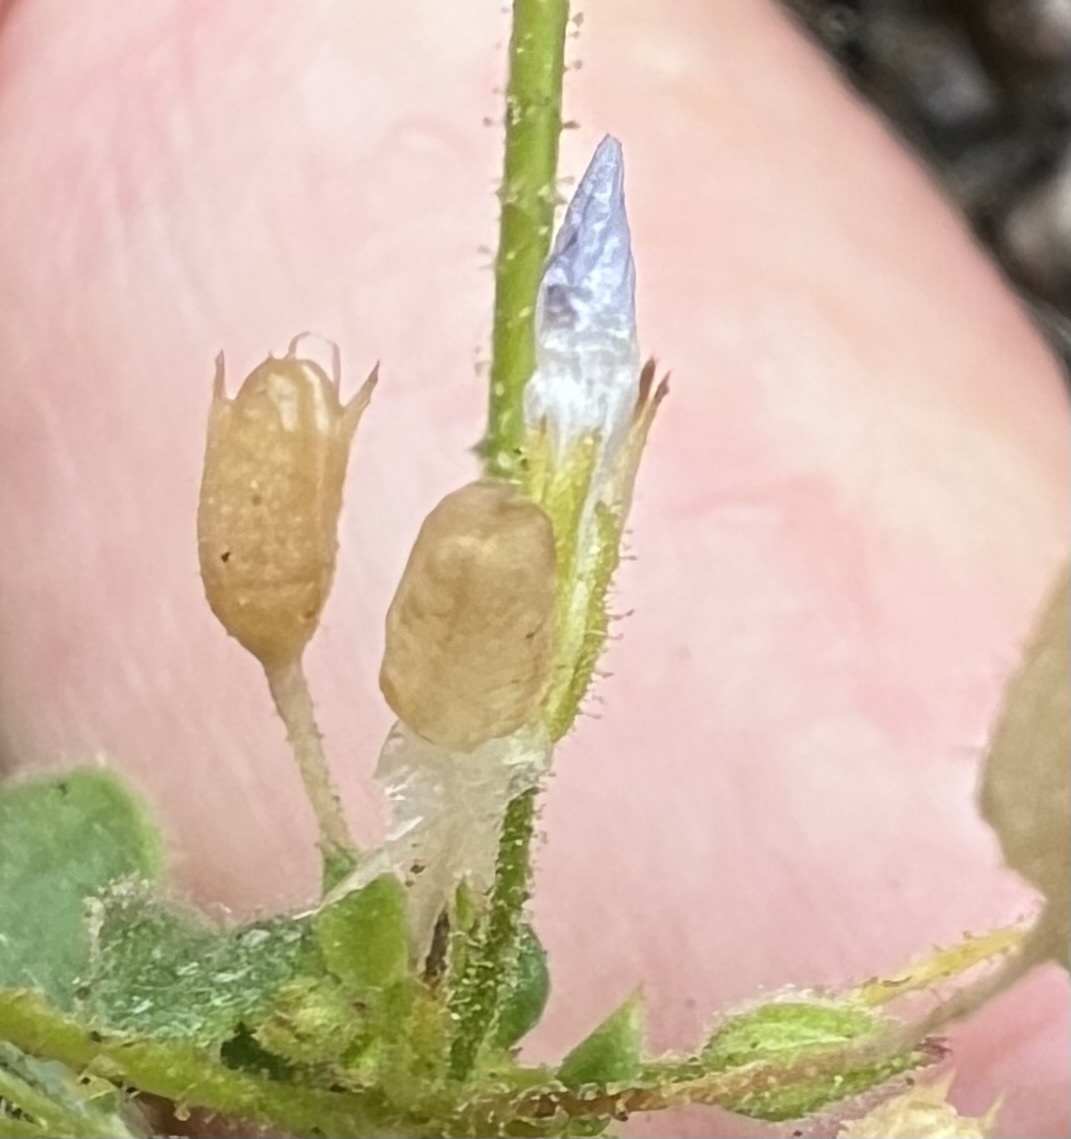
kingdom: Plantae
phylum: Tracheophyta
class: Magnoliopsida
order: Ericales
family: Polemoniaceae
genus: Aliciella
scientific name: Aliciella latifolia
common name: Broad-leaf gilia
